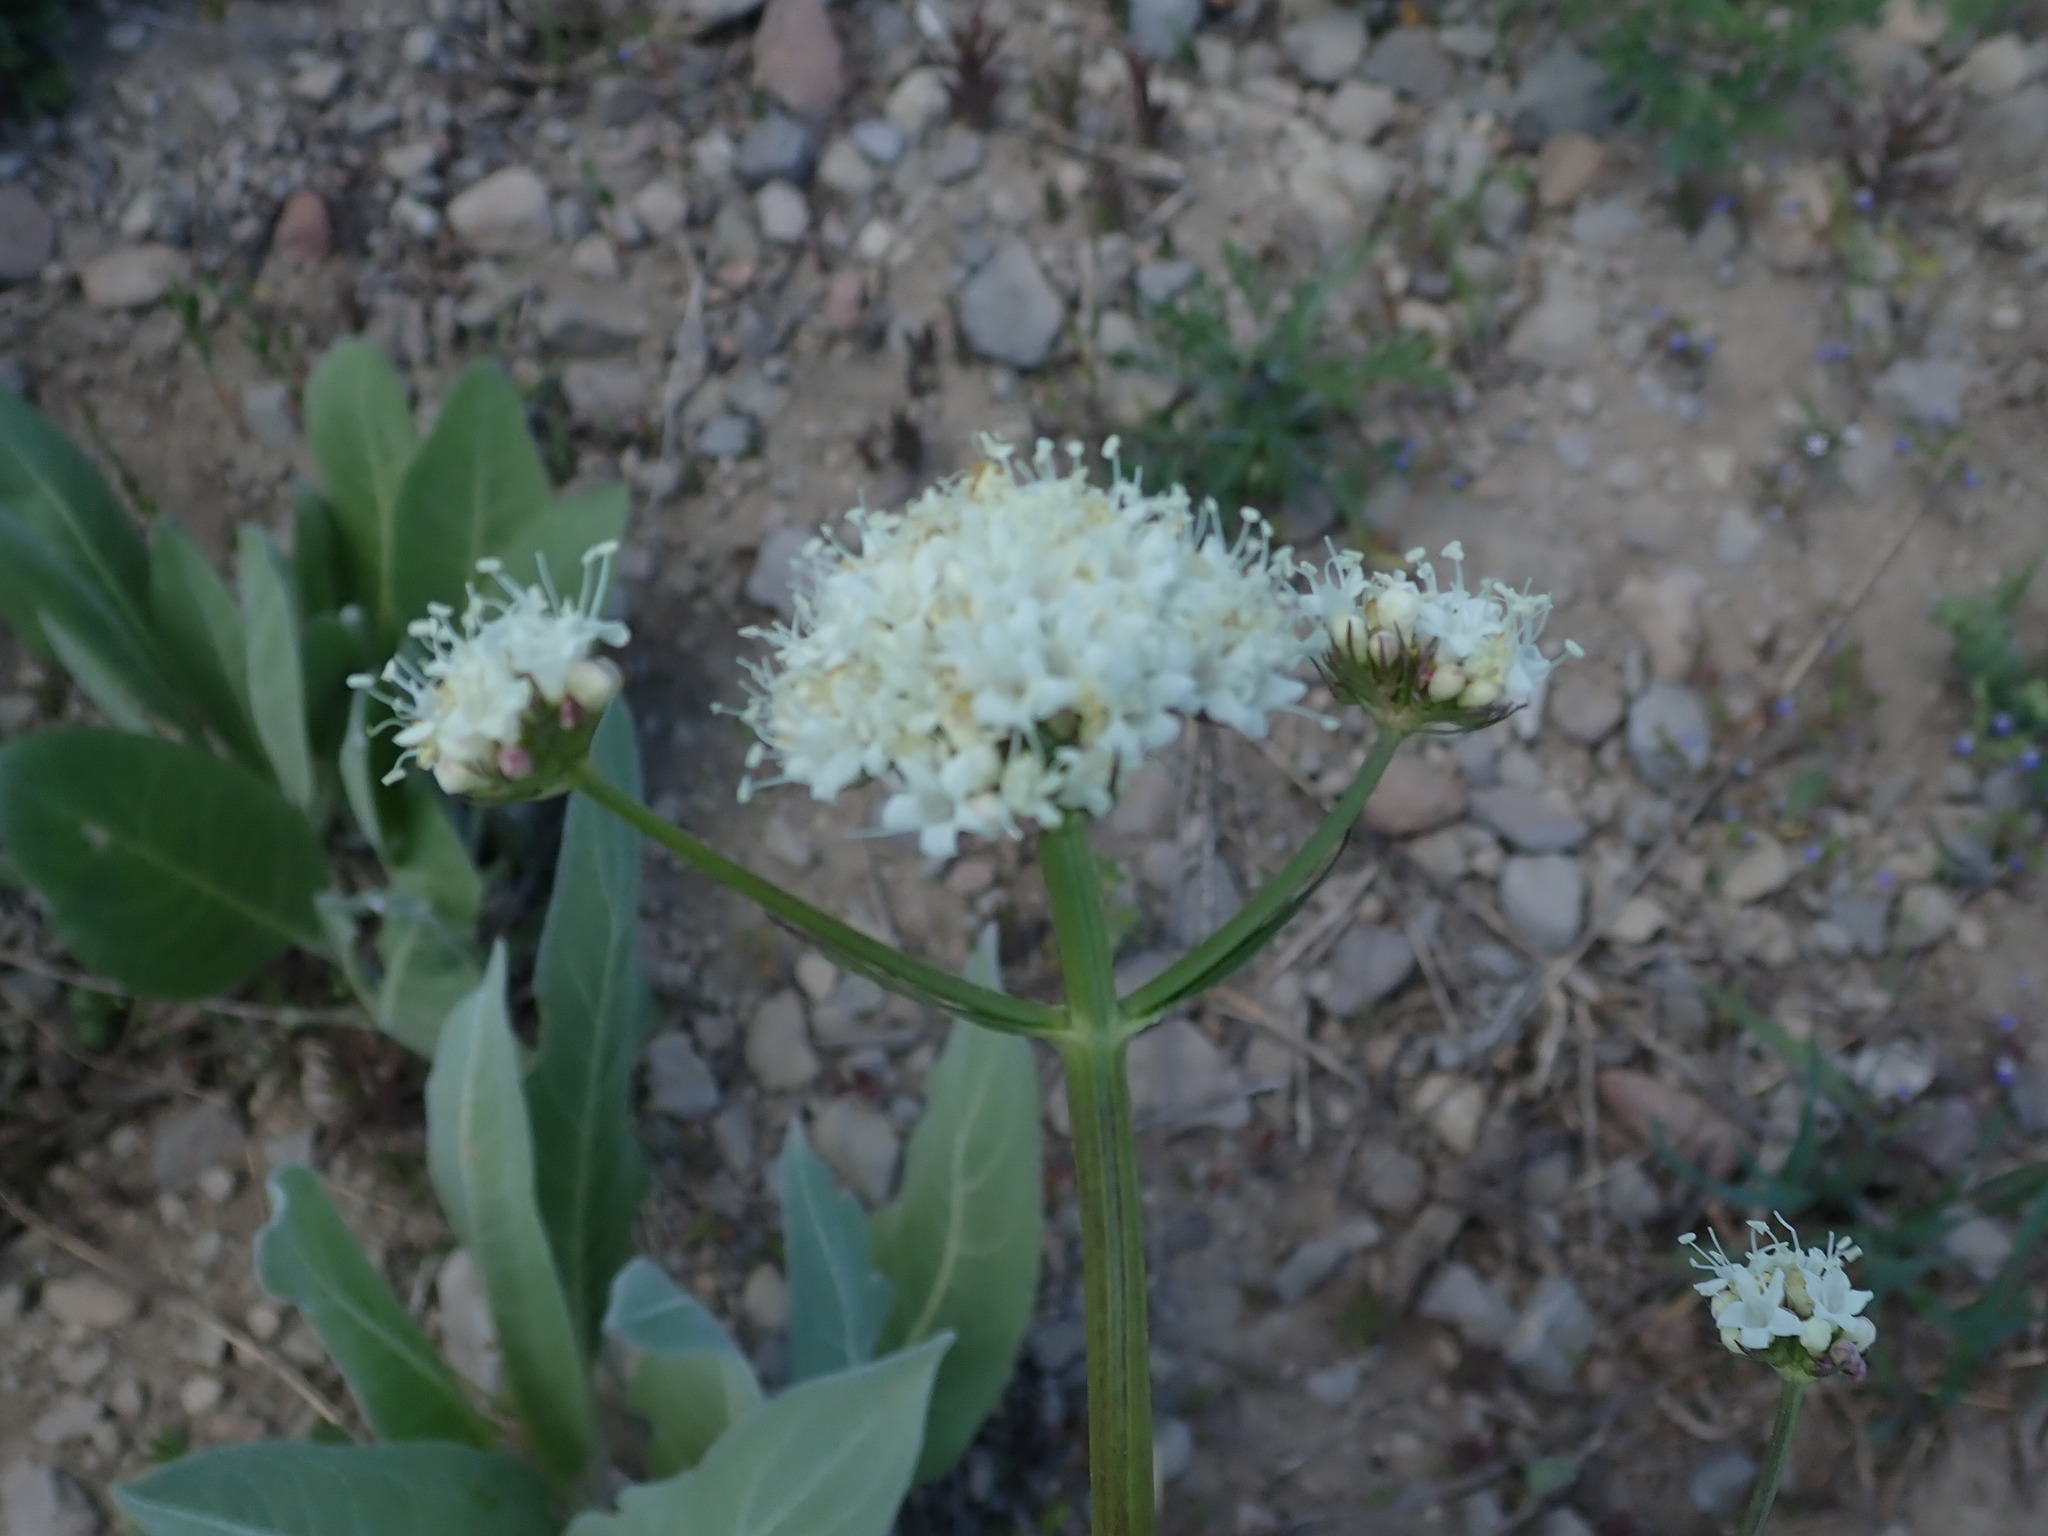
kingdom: Plantae
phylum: Tracheophyta
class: Magnoliopsida
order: Dipsacales
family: Caprifoliaceae
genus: Valeriana
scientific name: Valeriana californica
